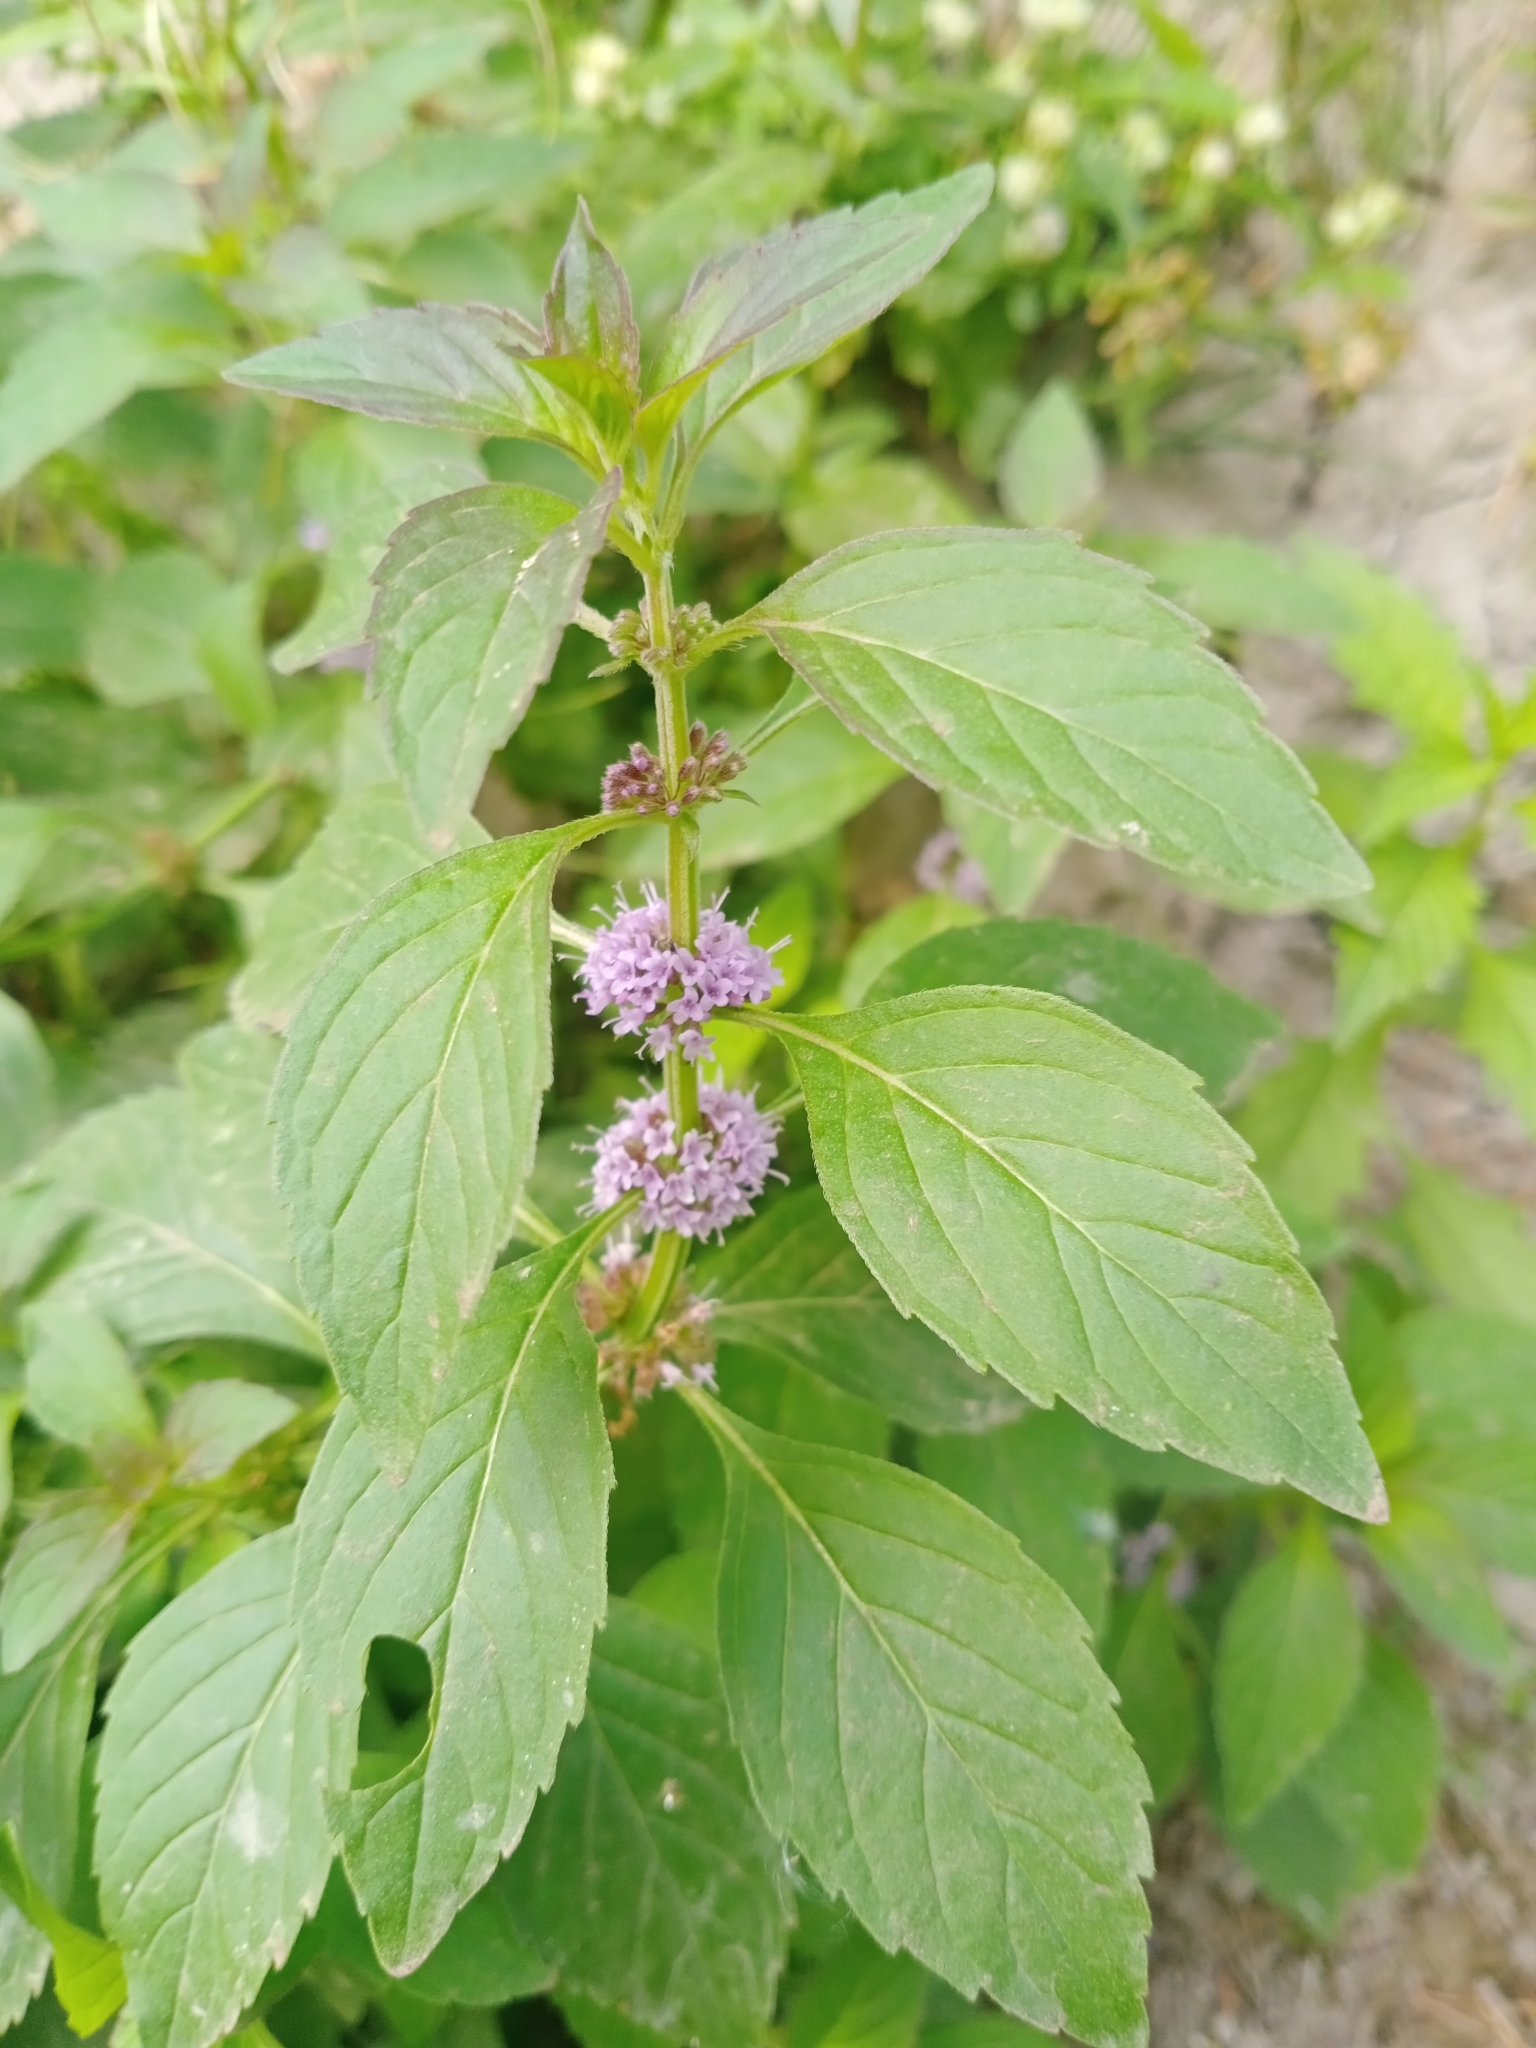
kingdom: Plantae
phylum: Tracheophyta
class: Magnoliopsida
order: Lamiales
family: Lamiaceae
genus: Mentha
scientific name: Mentha arvensis
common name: Corn mint
